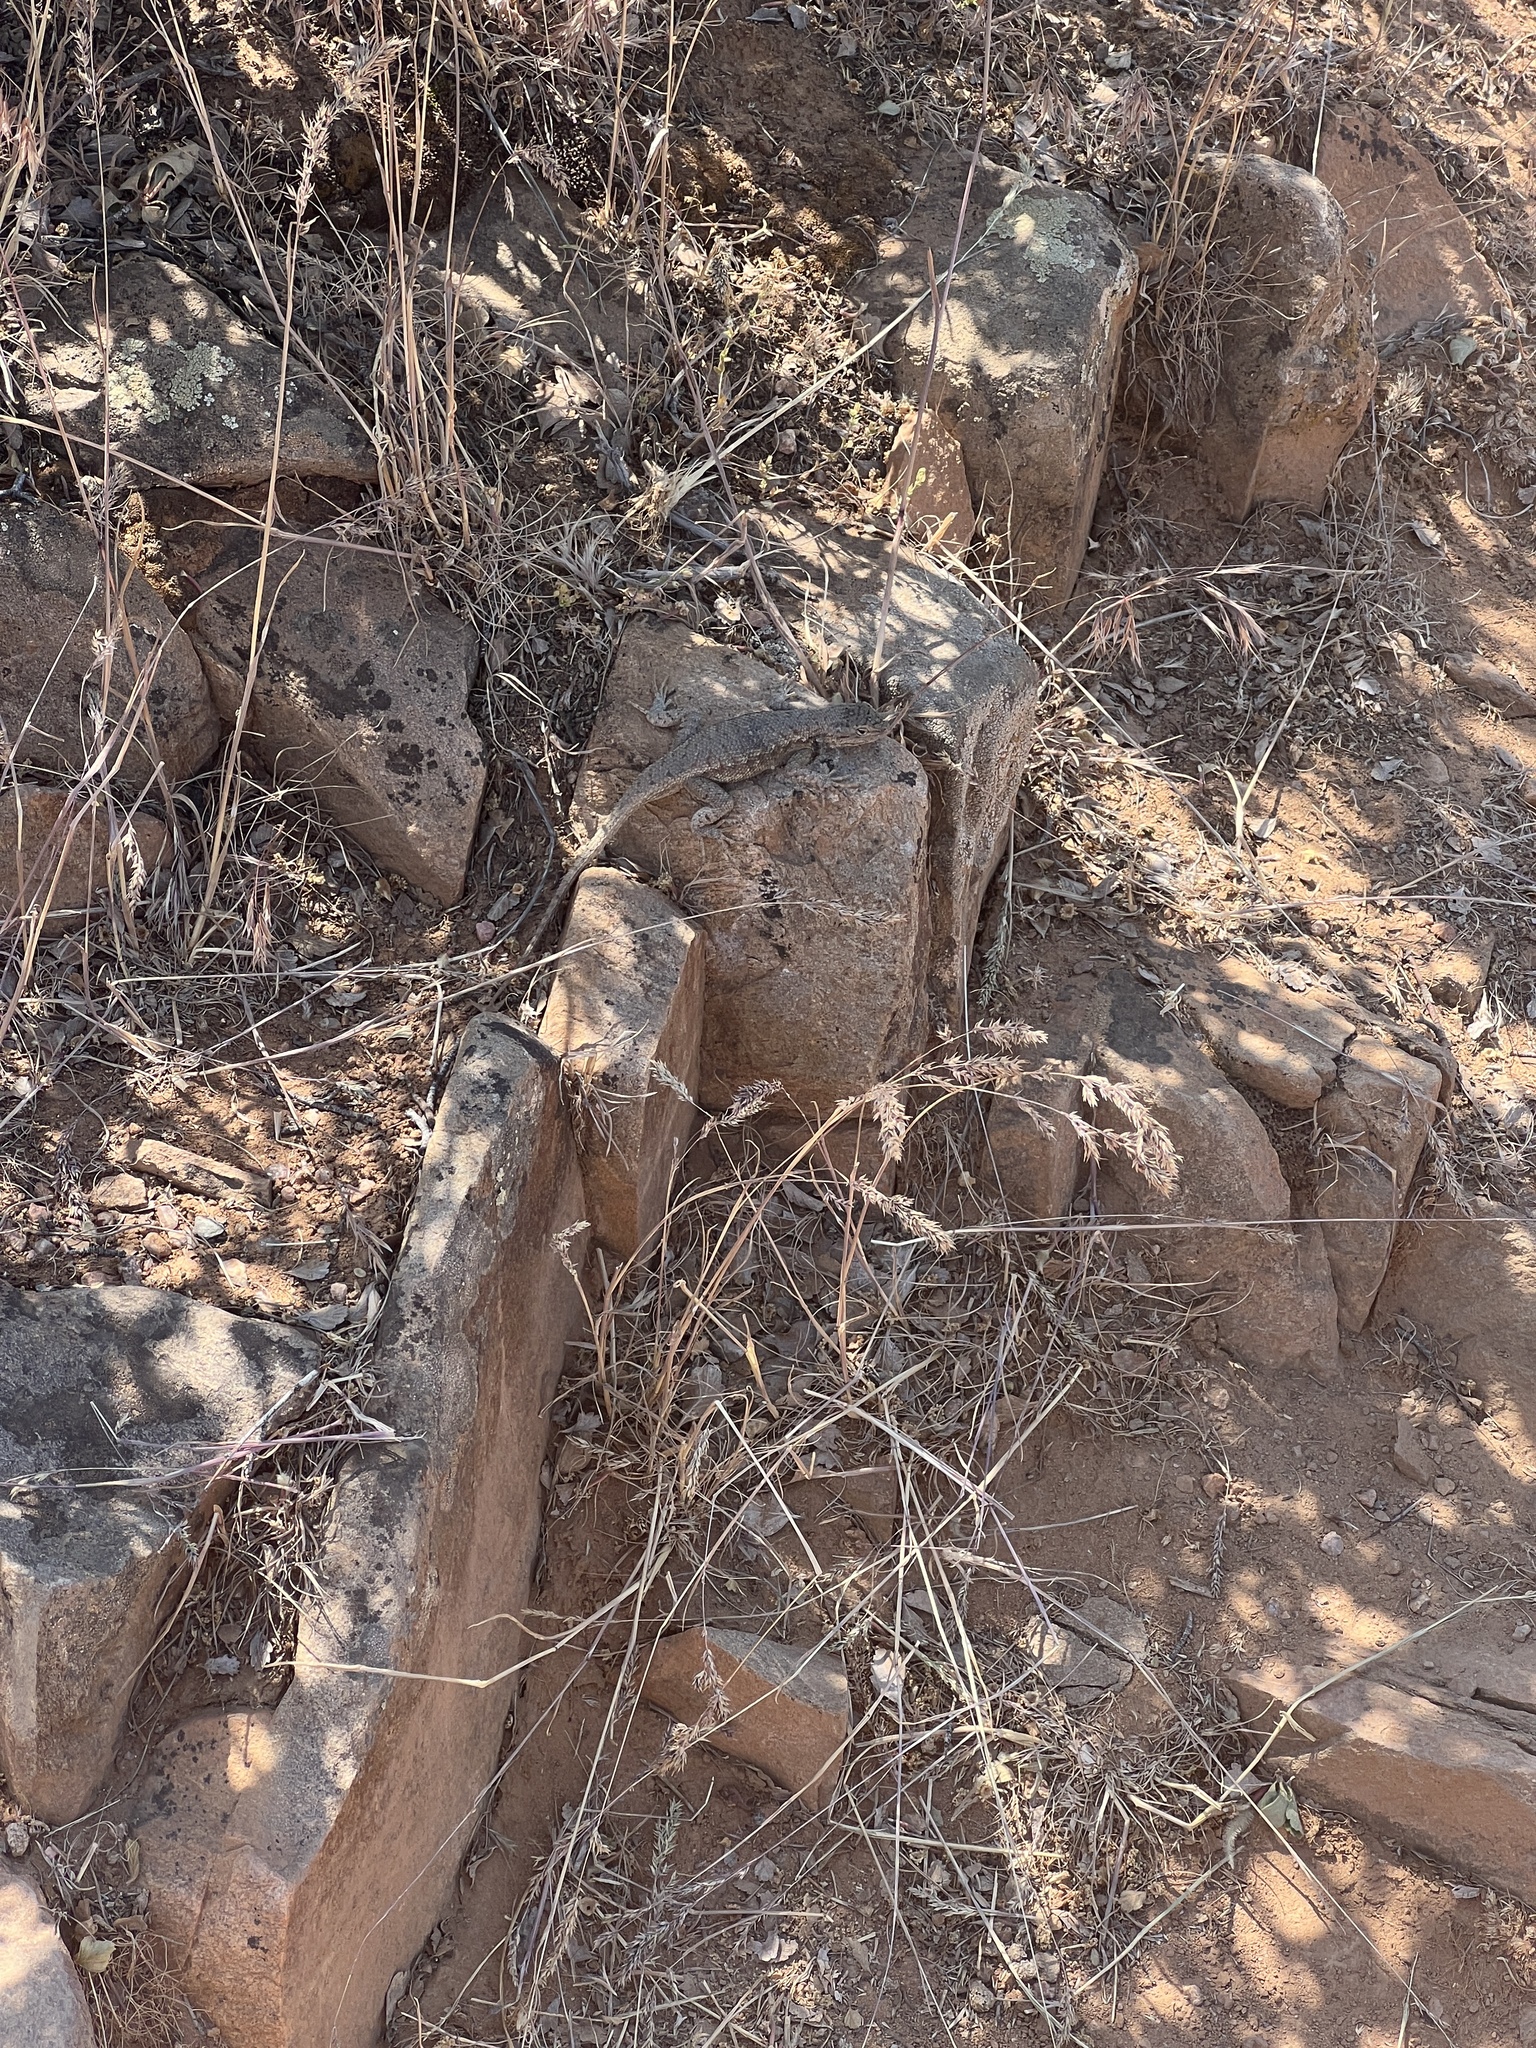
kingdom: Animalia
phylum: Chordata
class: Squamata
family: Phrynosomatidae
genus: Sceloporus
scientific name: Sceloporus tristichus
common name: Plateau fence lizard
